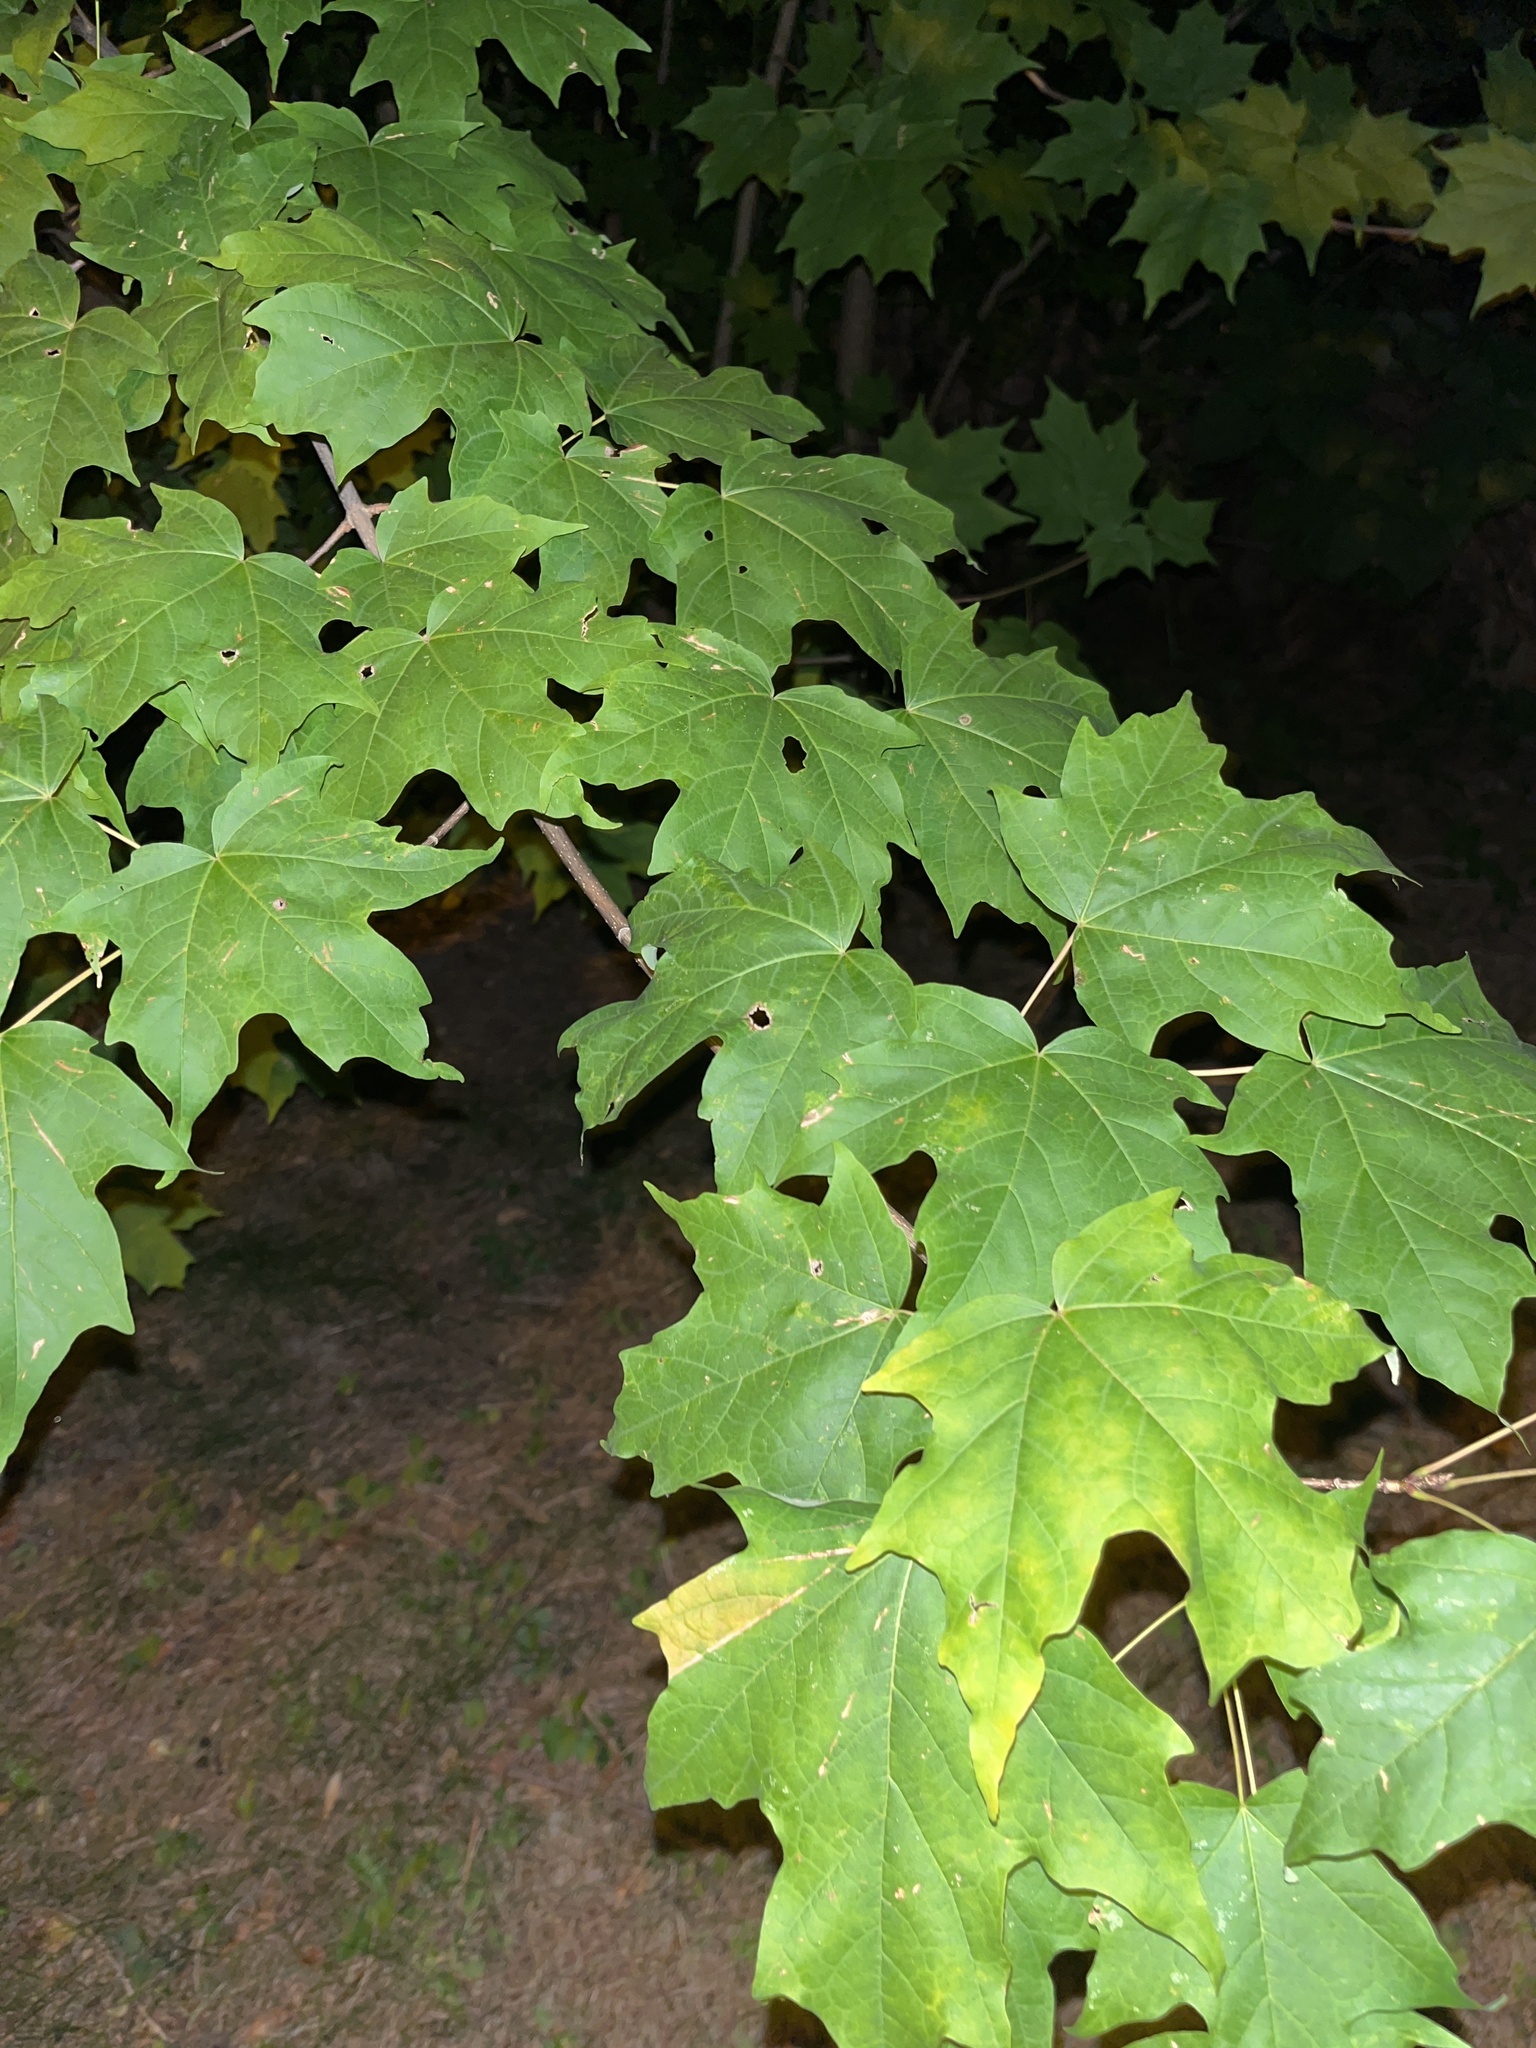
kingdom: Plantae
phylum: Tracheophyta
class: Magnoliopsida
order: Sapindales
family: Sapindaceae
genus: Acer
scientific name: Acer saccharum
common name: Sugar maple
